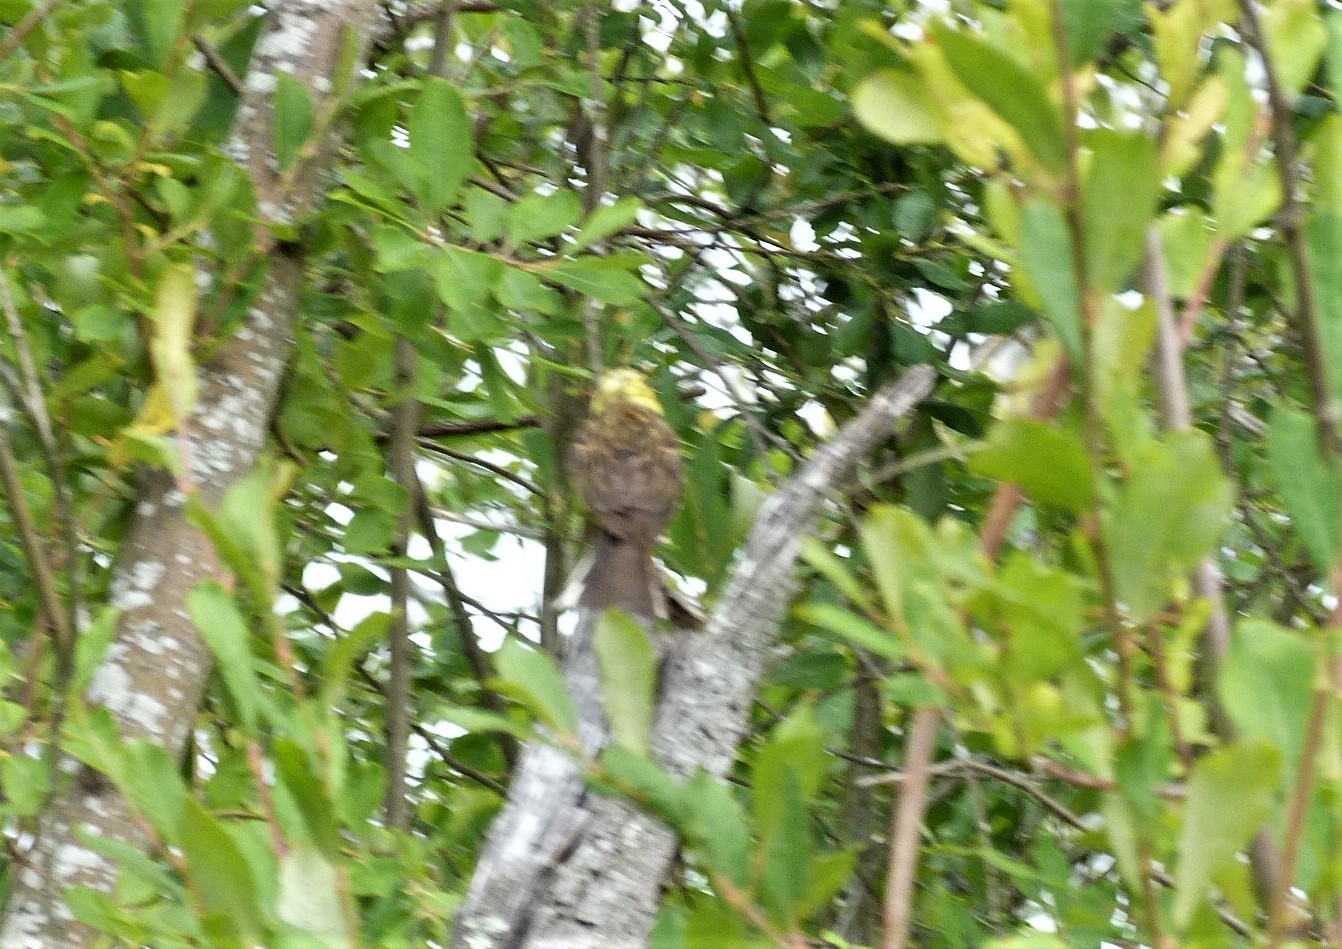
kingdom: Animalia
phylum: Chordata
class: Aves
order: Passeriformes
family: Emberizidae
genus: Emberiza
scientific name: Emberiza citrinella
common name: Yellowhammer
